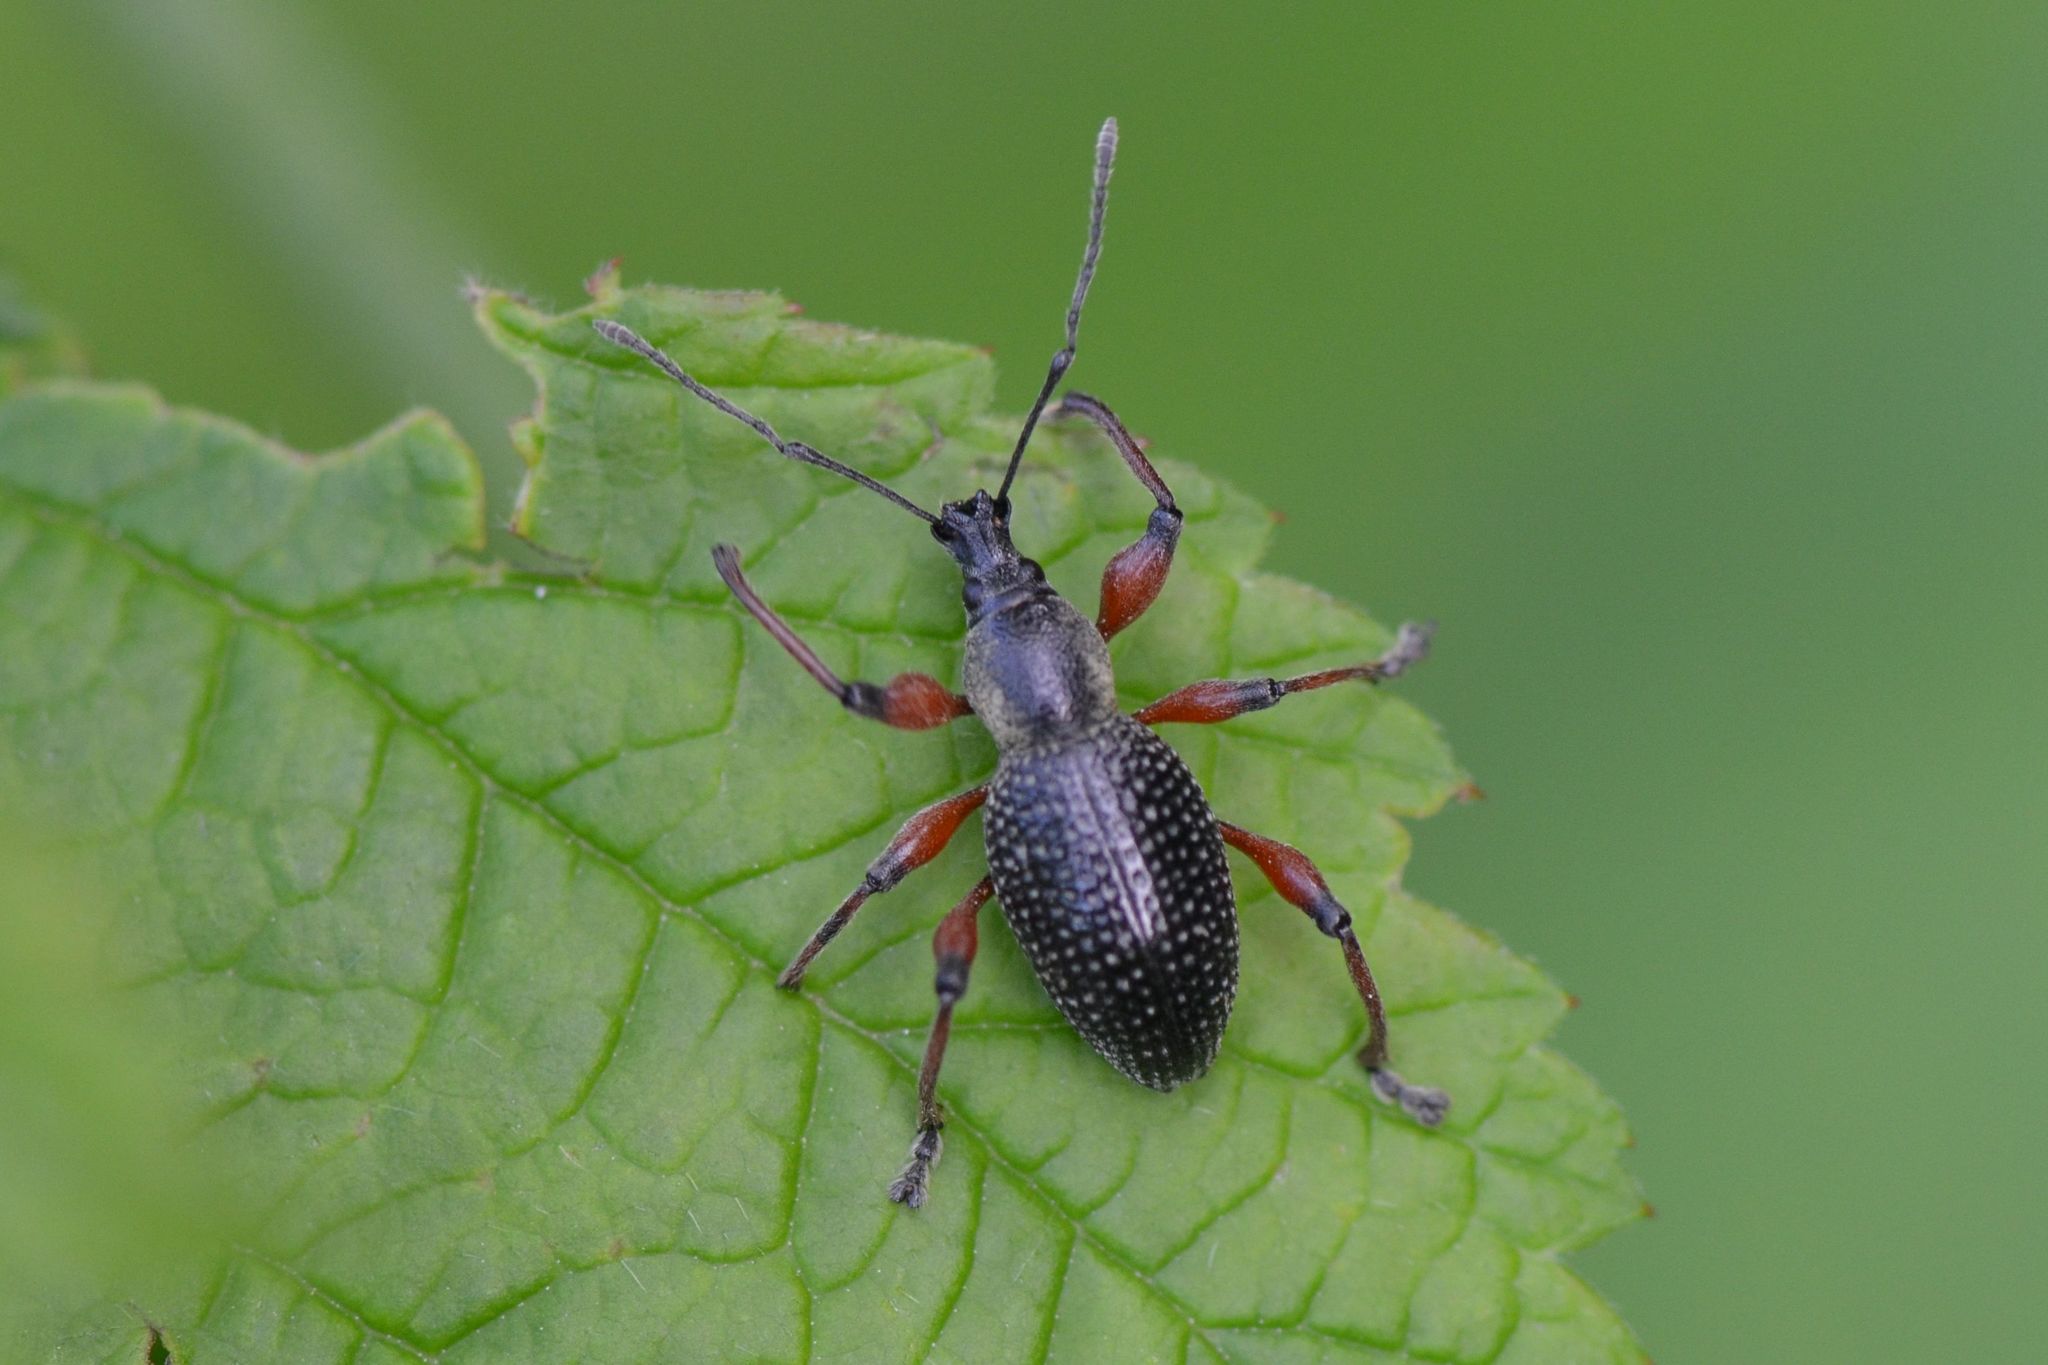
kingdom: Animalia
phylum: Arthropoda
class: Insecta
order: Coleoptera
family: Curculionidae
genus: Otiorhynchus
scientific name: Otiorhynchus coecus
